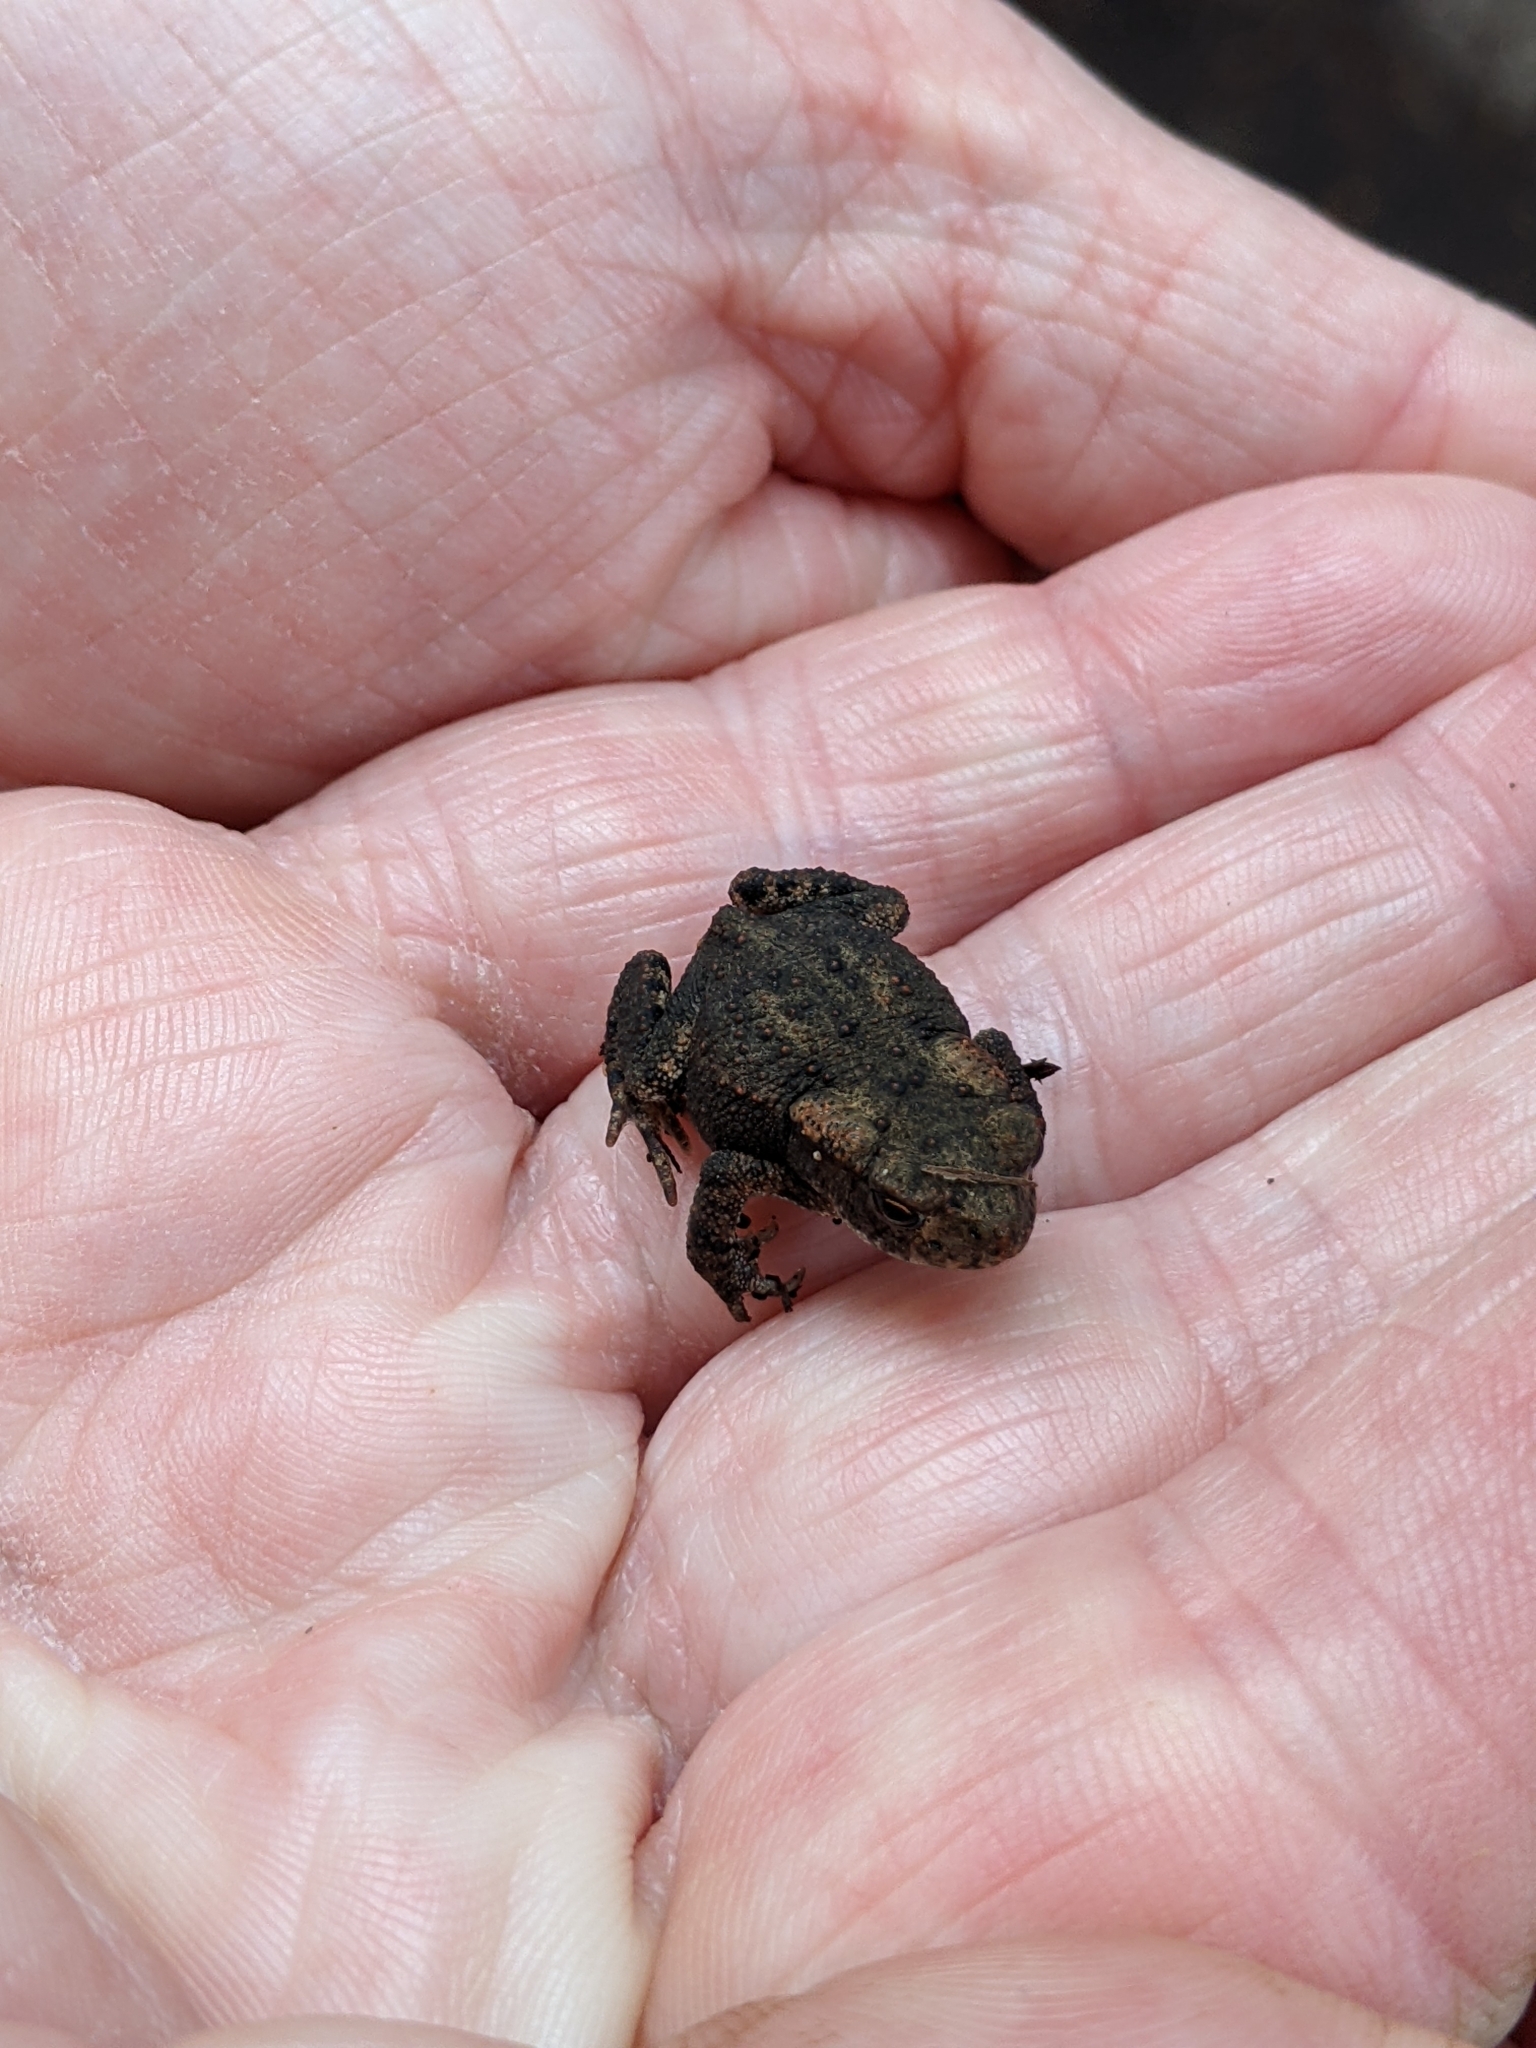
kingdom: Animalia
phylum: Chordata
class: Amphibia
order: Anura
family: Bufonidae
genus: Bufo
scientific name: Bufo bufo
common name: Common toad
